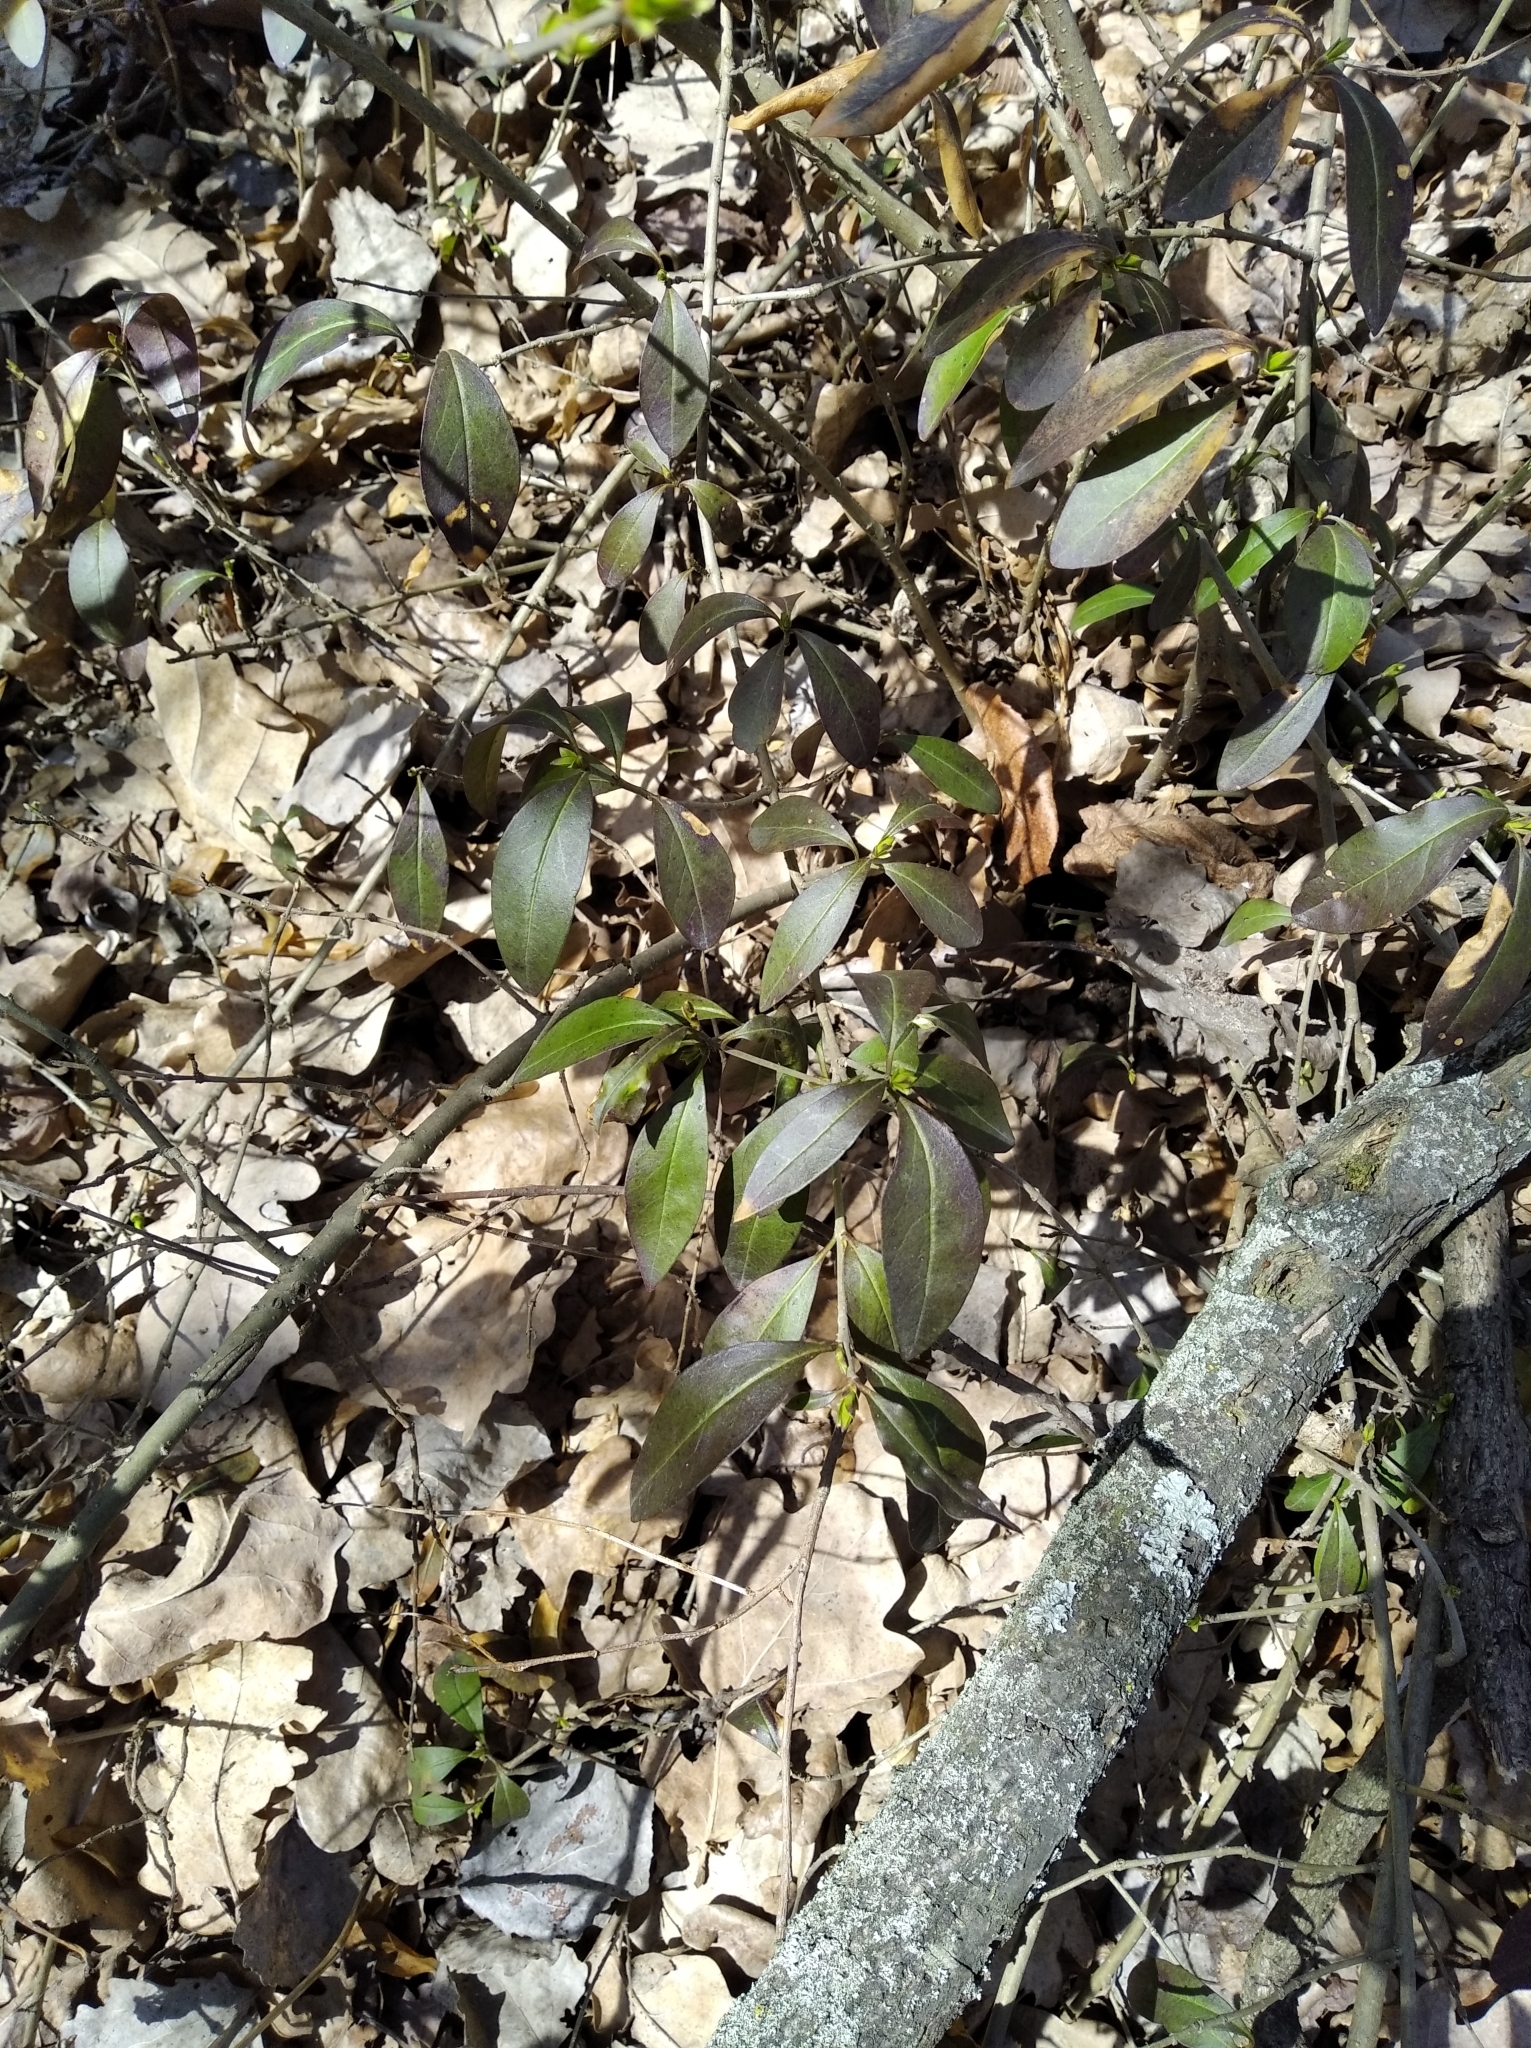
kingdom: Plantae
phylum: Tracheophyta
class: Magnoliopsida
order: Lamiales
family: Oleaceae
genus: Ligustrum
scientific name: Ligustrum vulgare
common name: Wild privet
